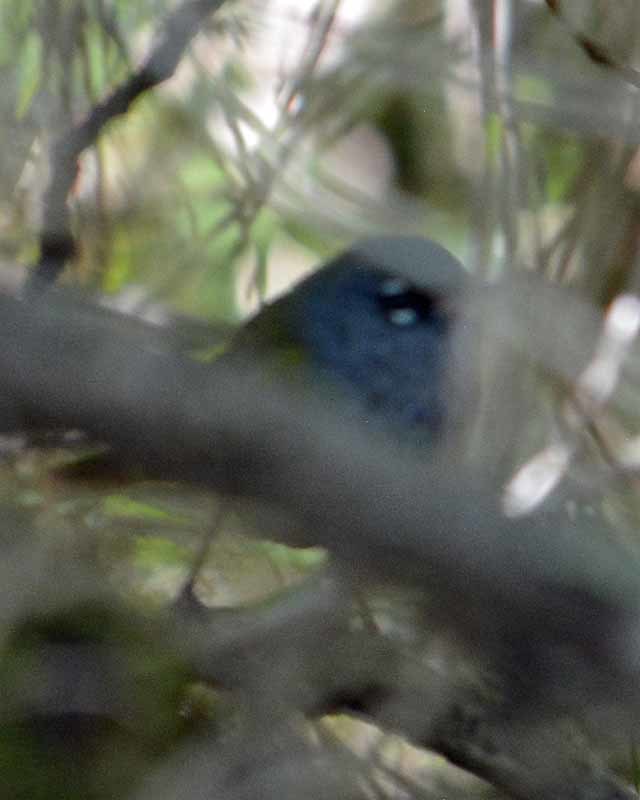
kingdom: Animalia
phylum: Chordata
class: Aves
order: Passeriformes
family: Parulidae
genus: Geothlypis
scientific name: Geothlypis tolmiei
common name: Macgillivray's warbler
